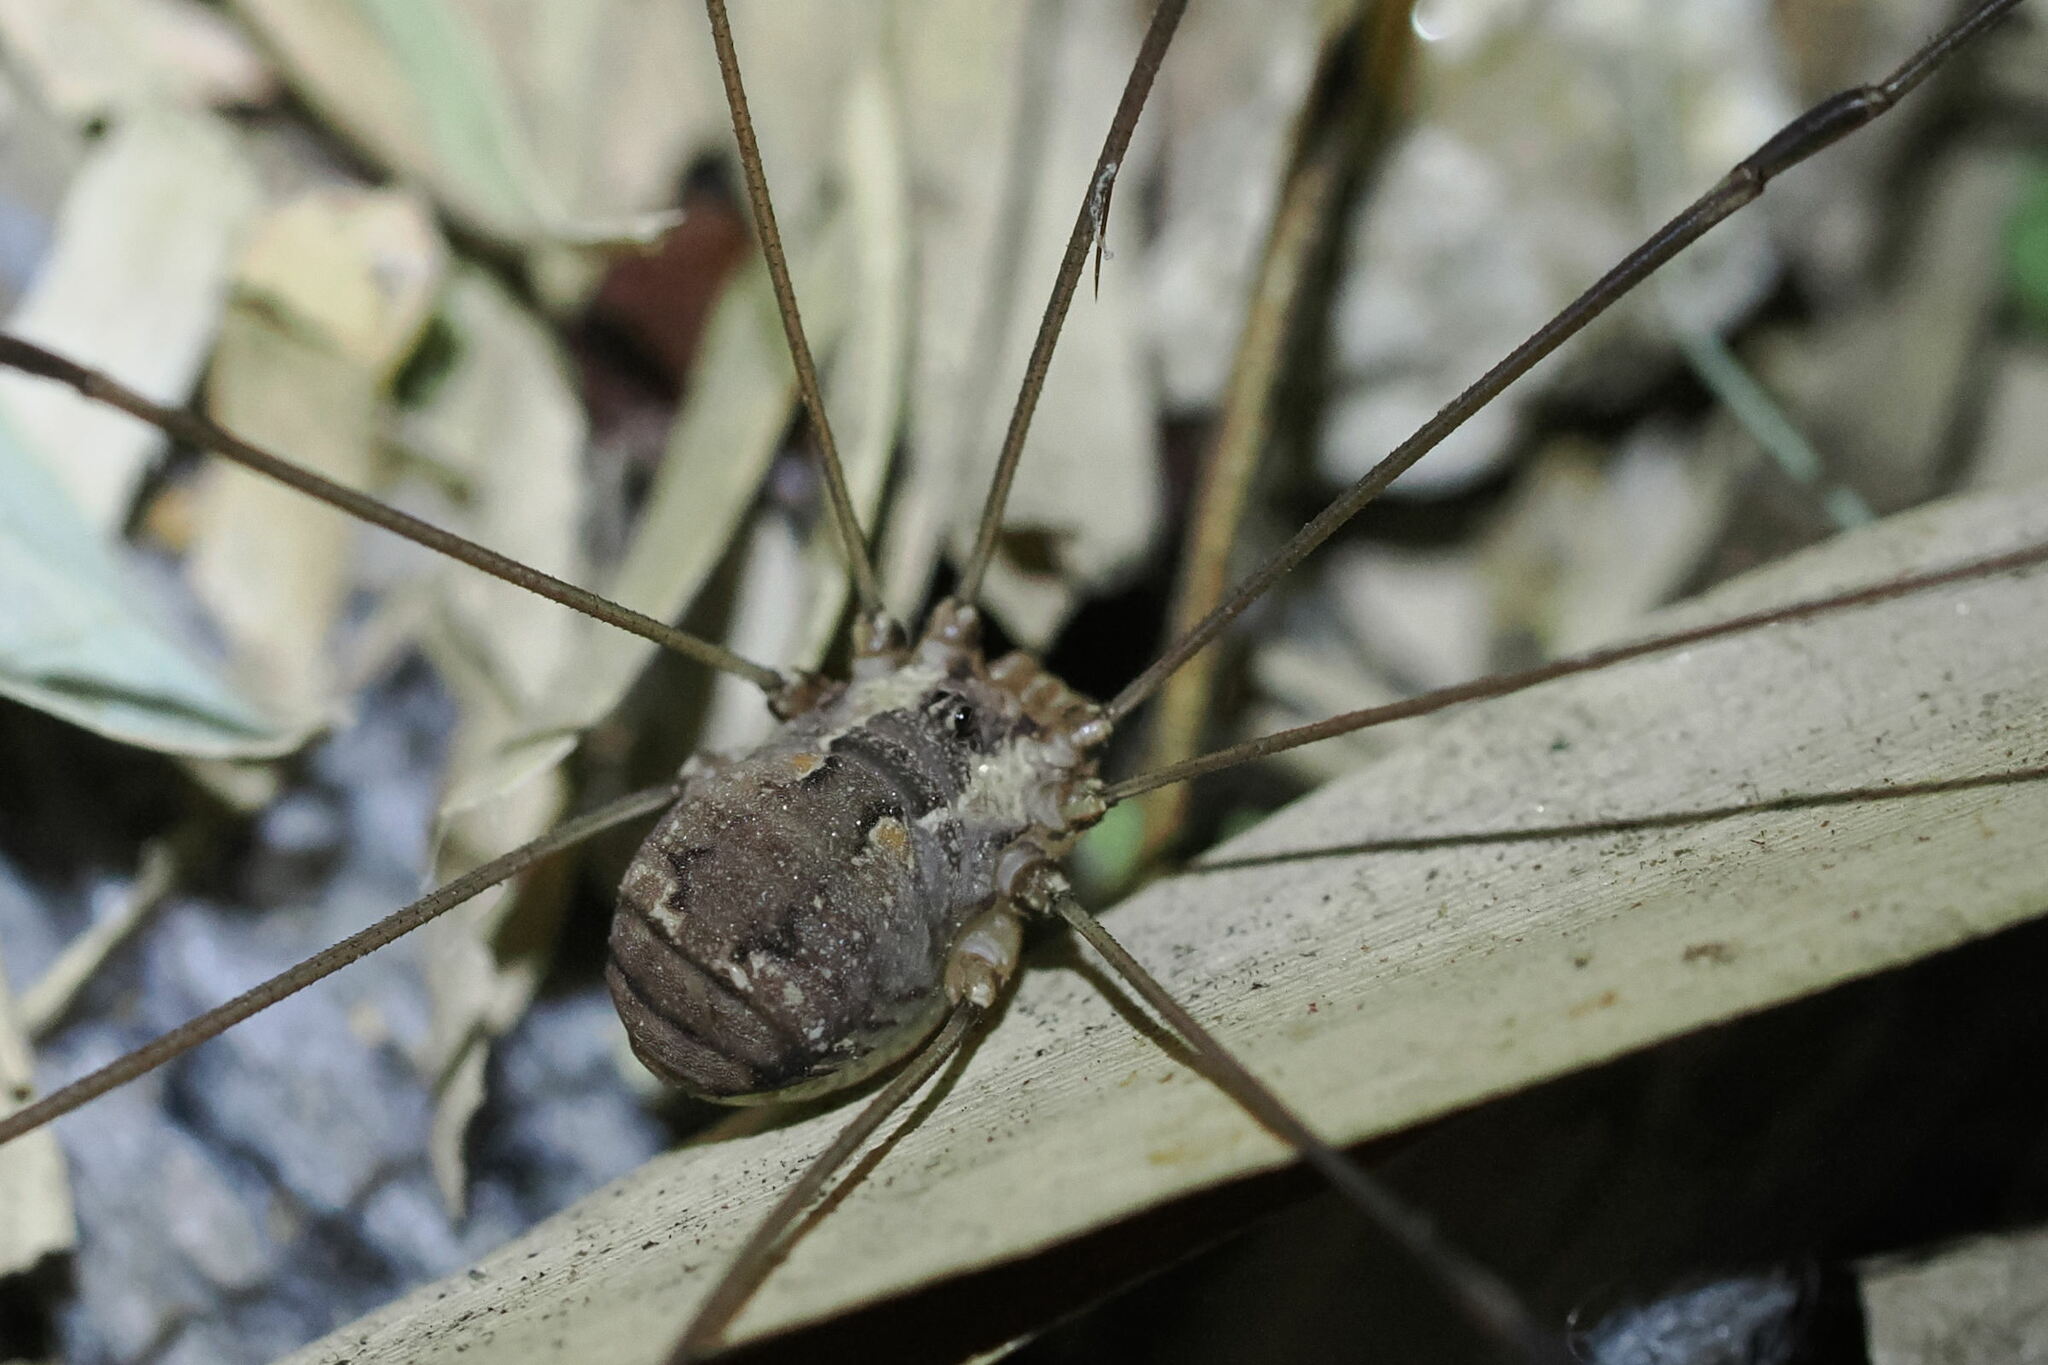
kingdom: Animalia
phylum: Arthropoda
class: Arachnida
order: Opiliones
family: Sclerosomatidae
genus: Leiobunum
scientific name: Leiobunum escondidum
